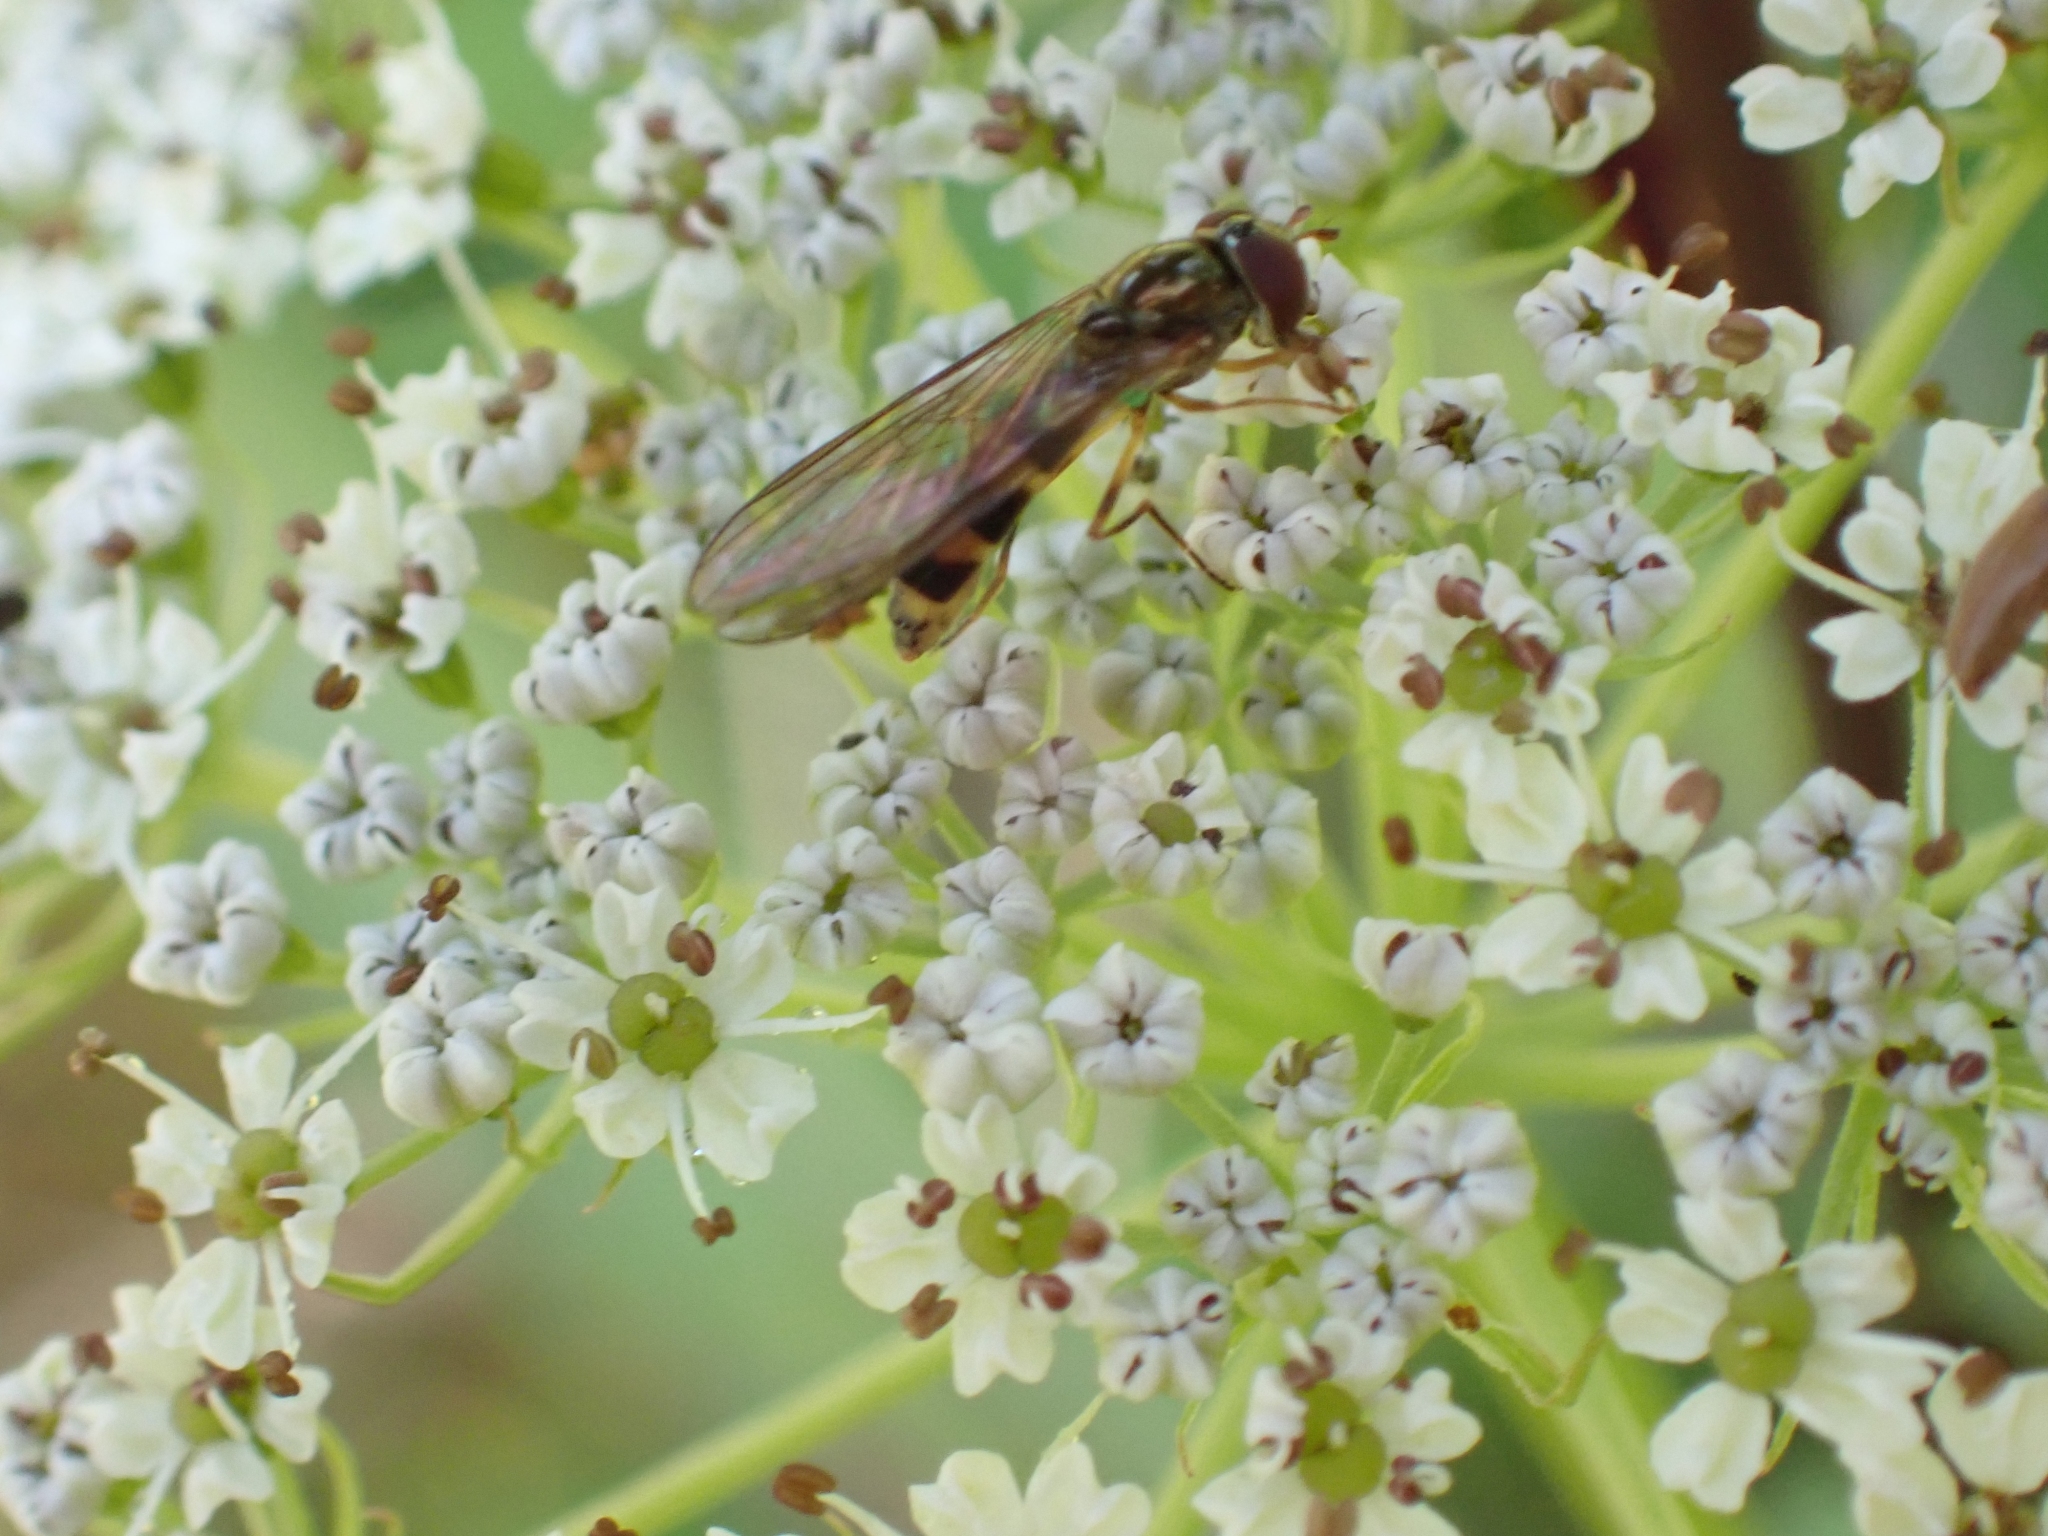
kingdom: Animalia
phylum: Arthropoda
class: Insecta
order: Diptera
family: Syrphidae
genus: Melanostoma
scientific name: Melanostoma mellina
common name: Hover fly
